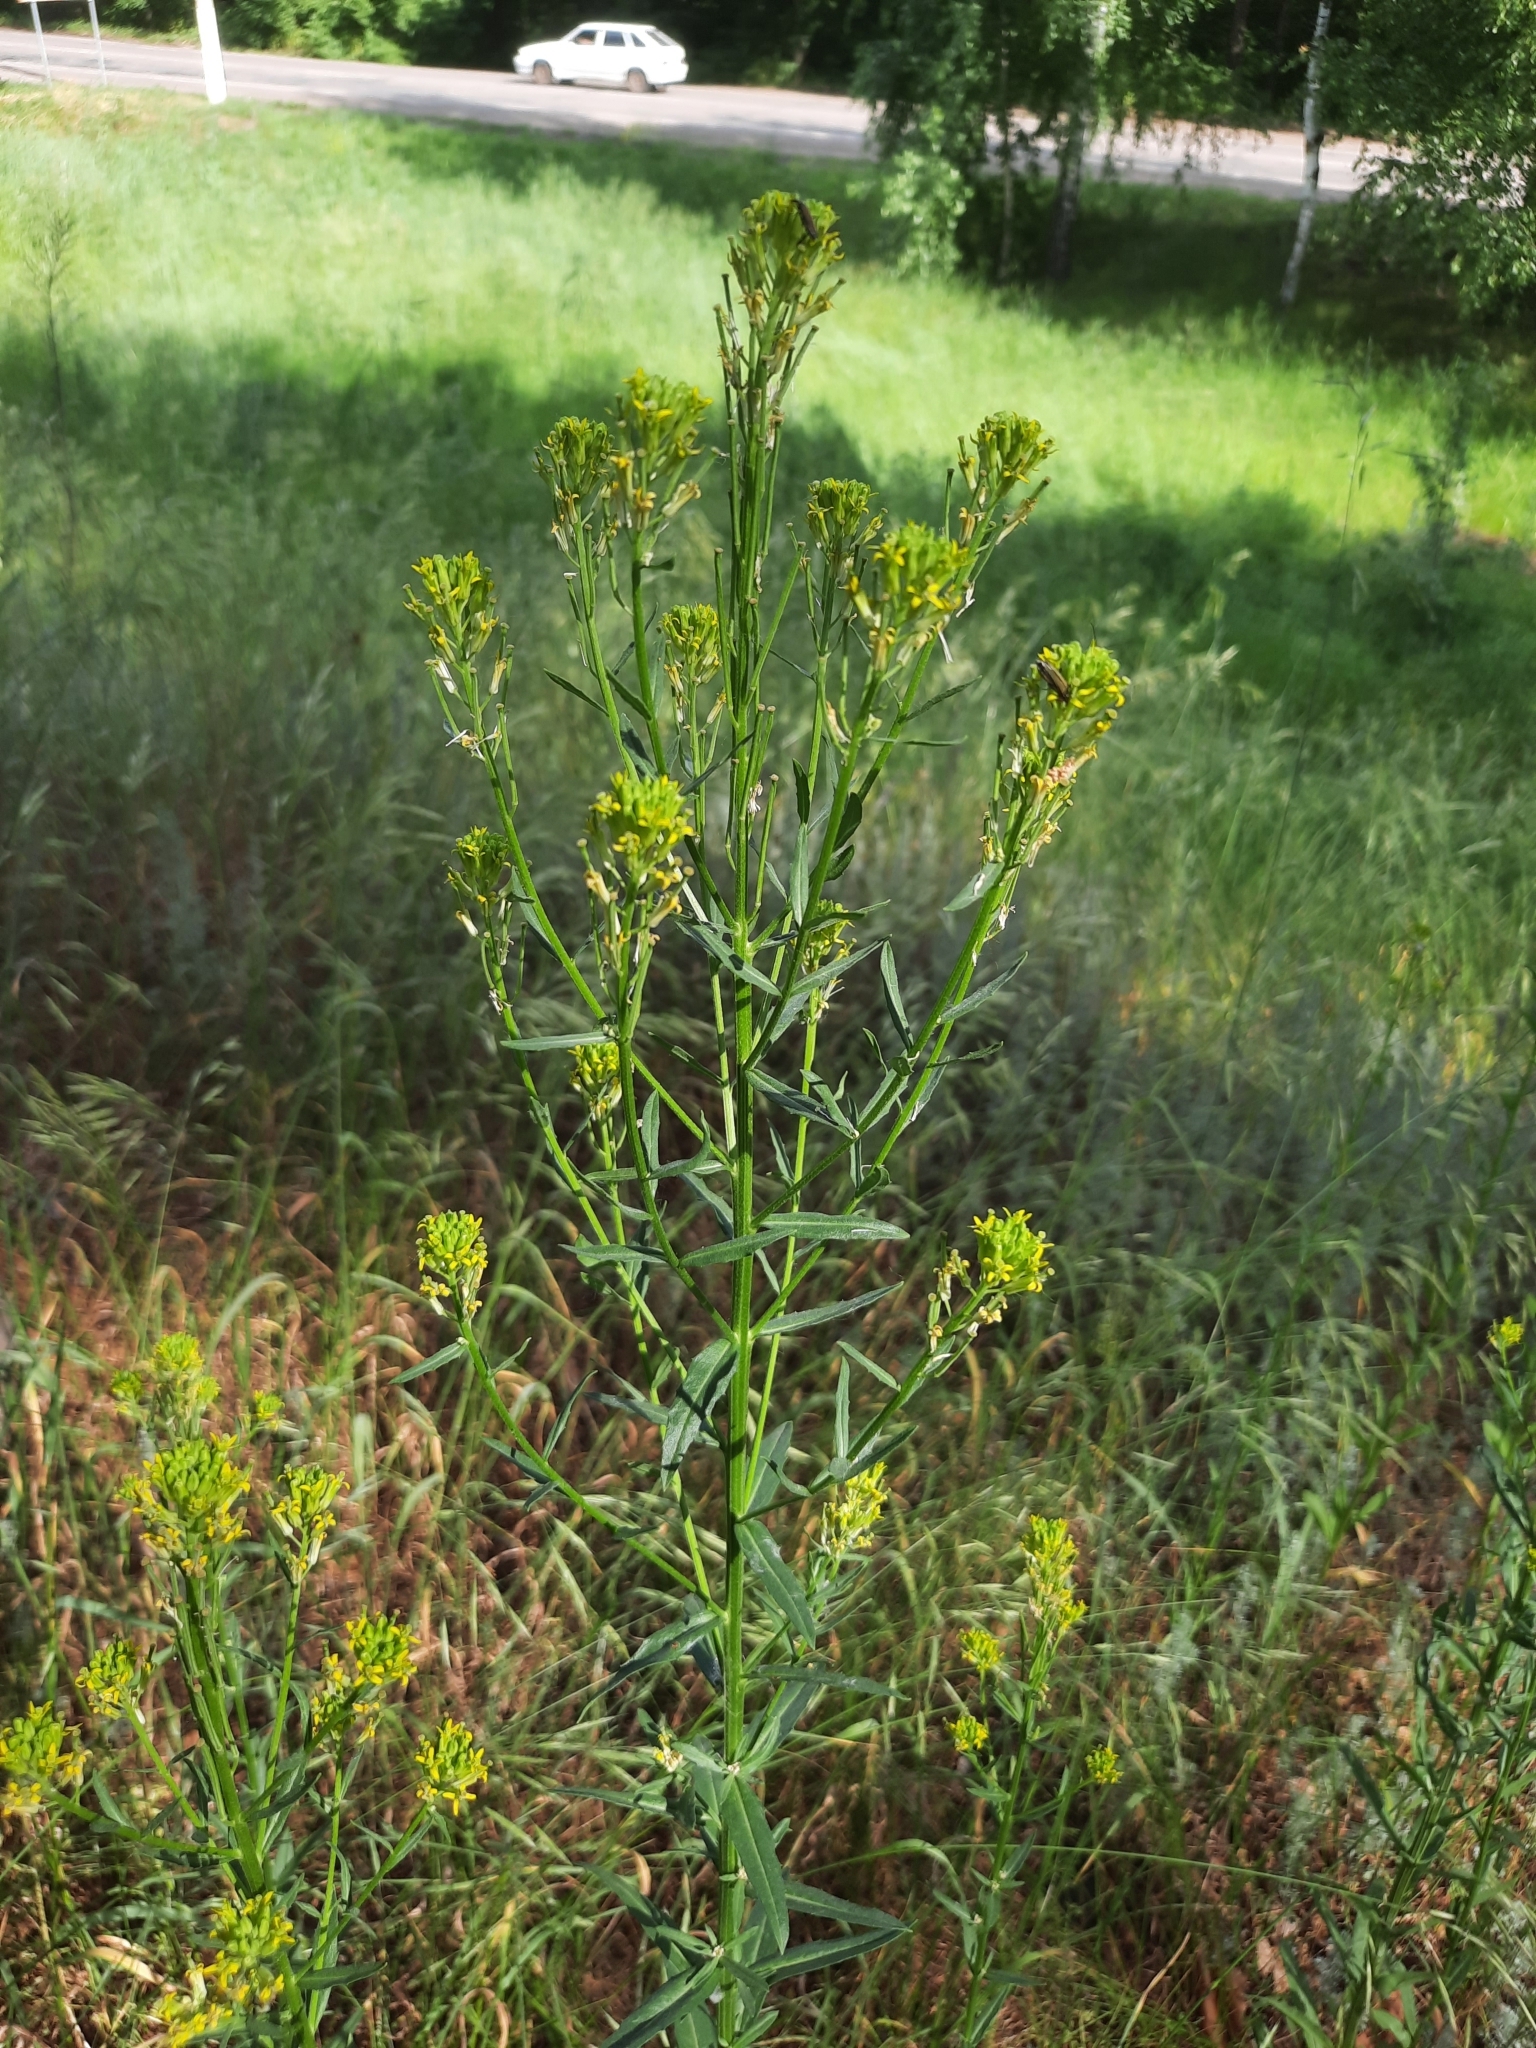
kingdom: Plantae
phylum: Tracheophyta
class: Magnoliopsida
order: Brassicales
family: Brassicaceae
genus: Erysimum
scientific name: Erysimum hieraciifolium
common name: European wallflower
